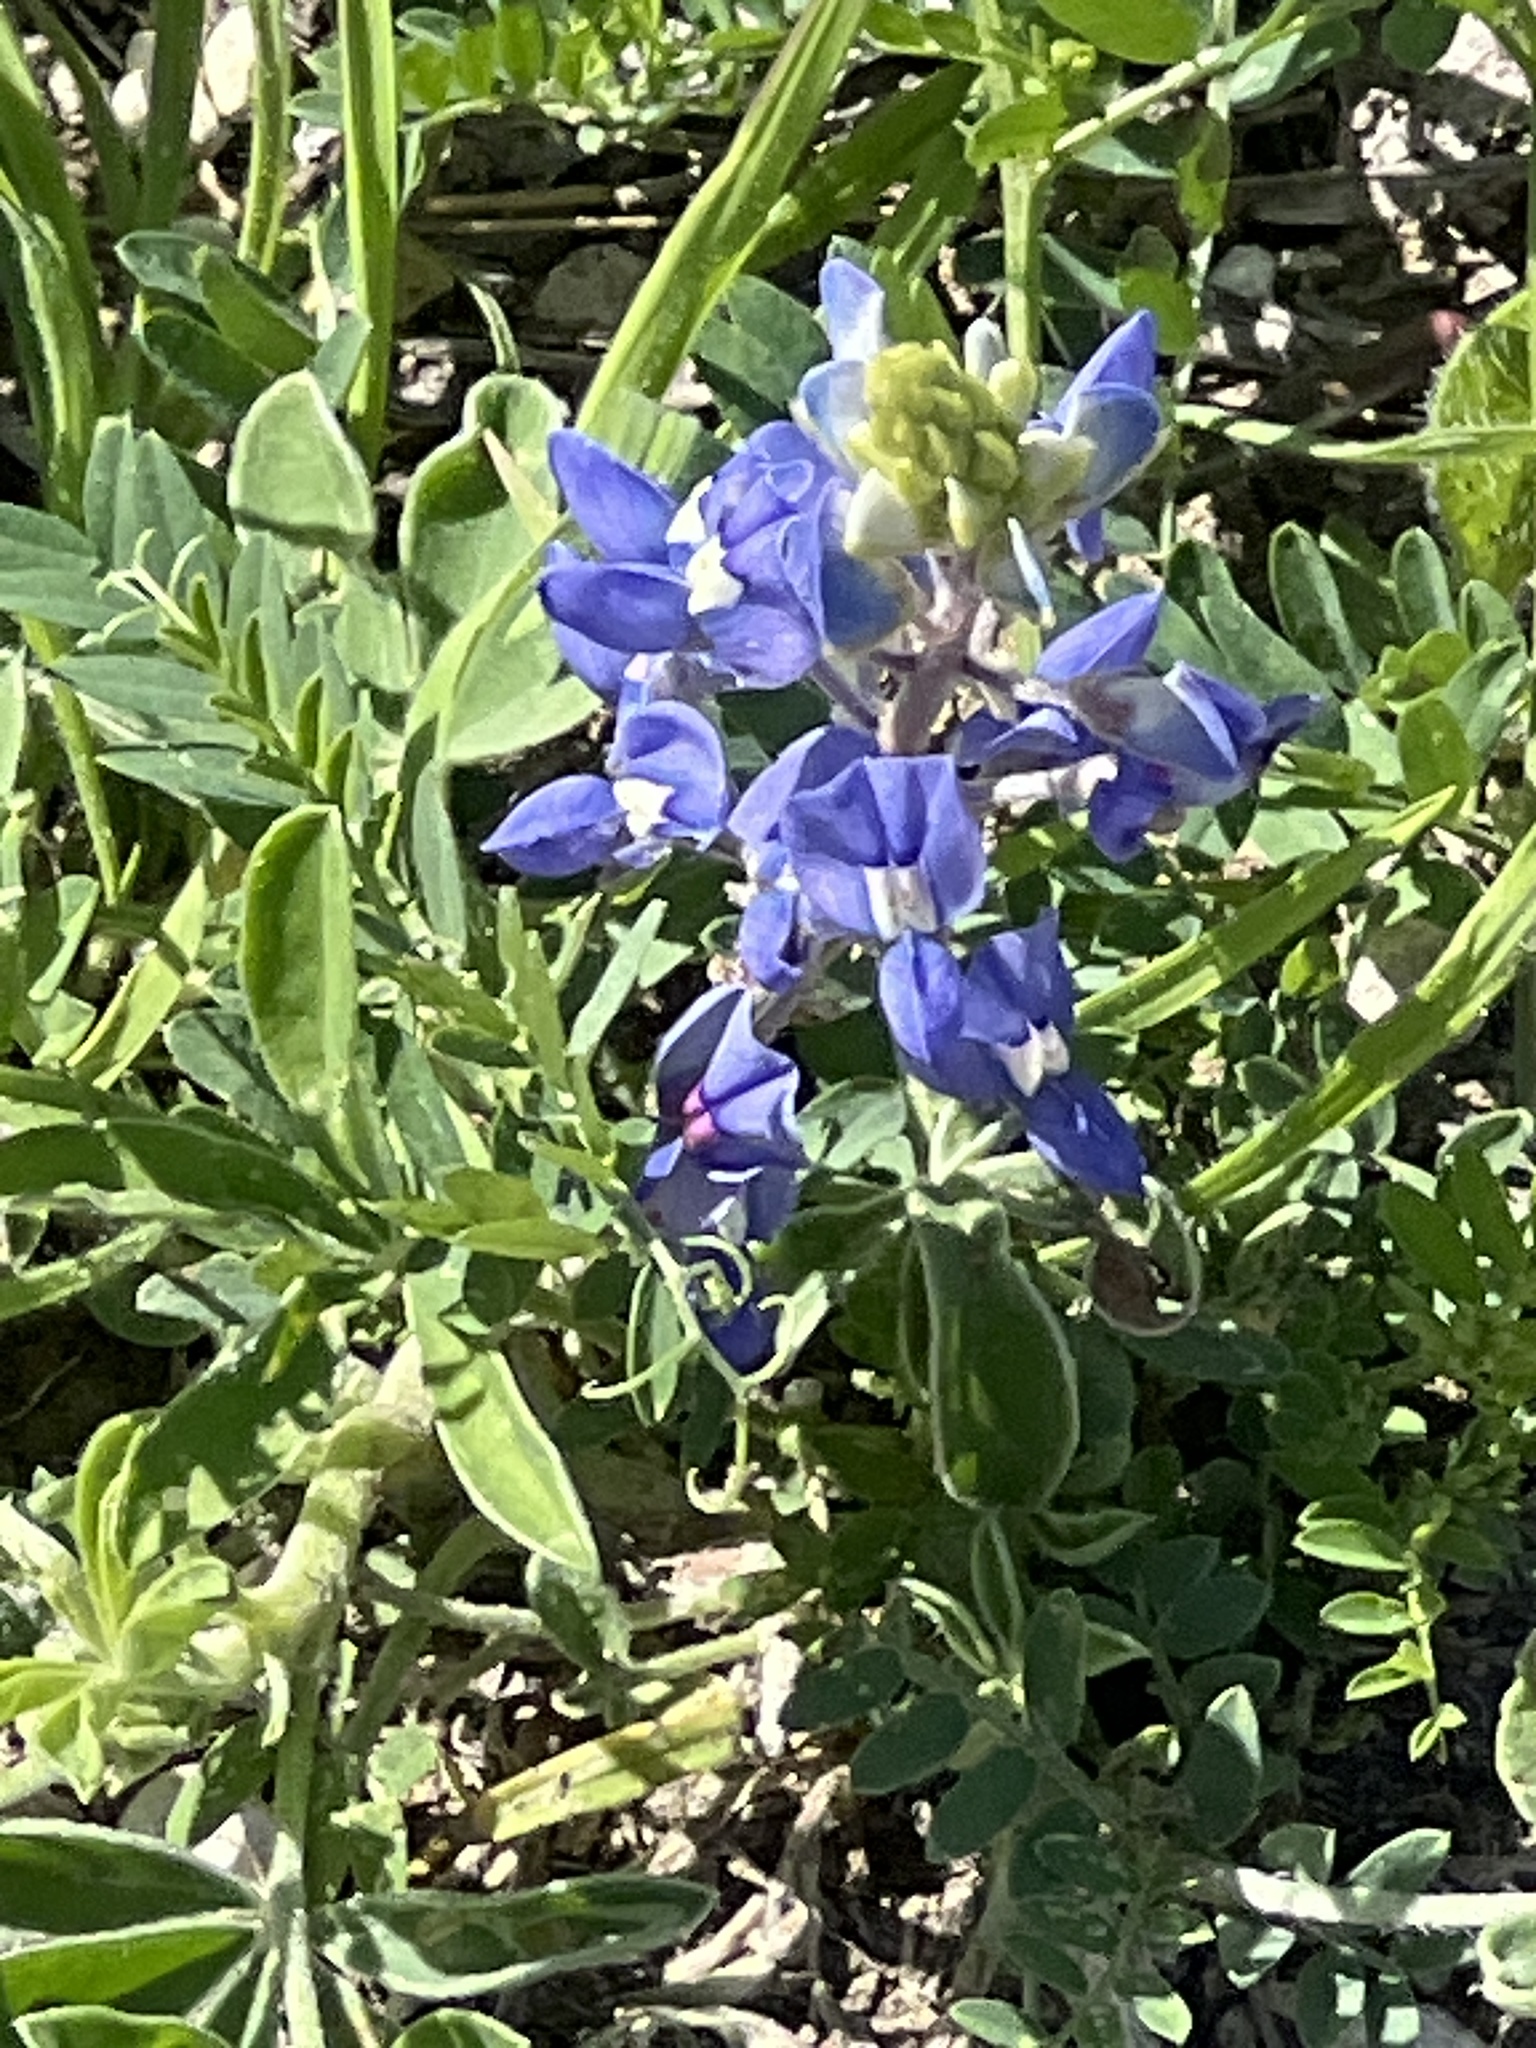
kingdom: Plantae
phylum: Tracheophyta
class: Magnoliopsida
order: Fabales
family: Fabaceae
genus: Lupinus
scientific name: Lupinus texensis
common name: Texas bluebonnet
